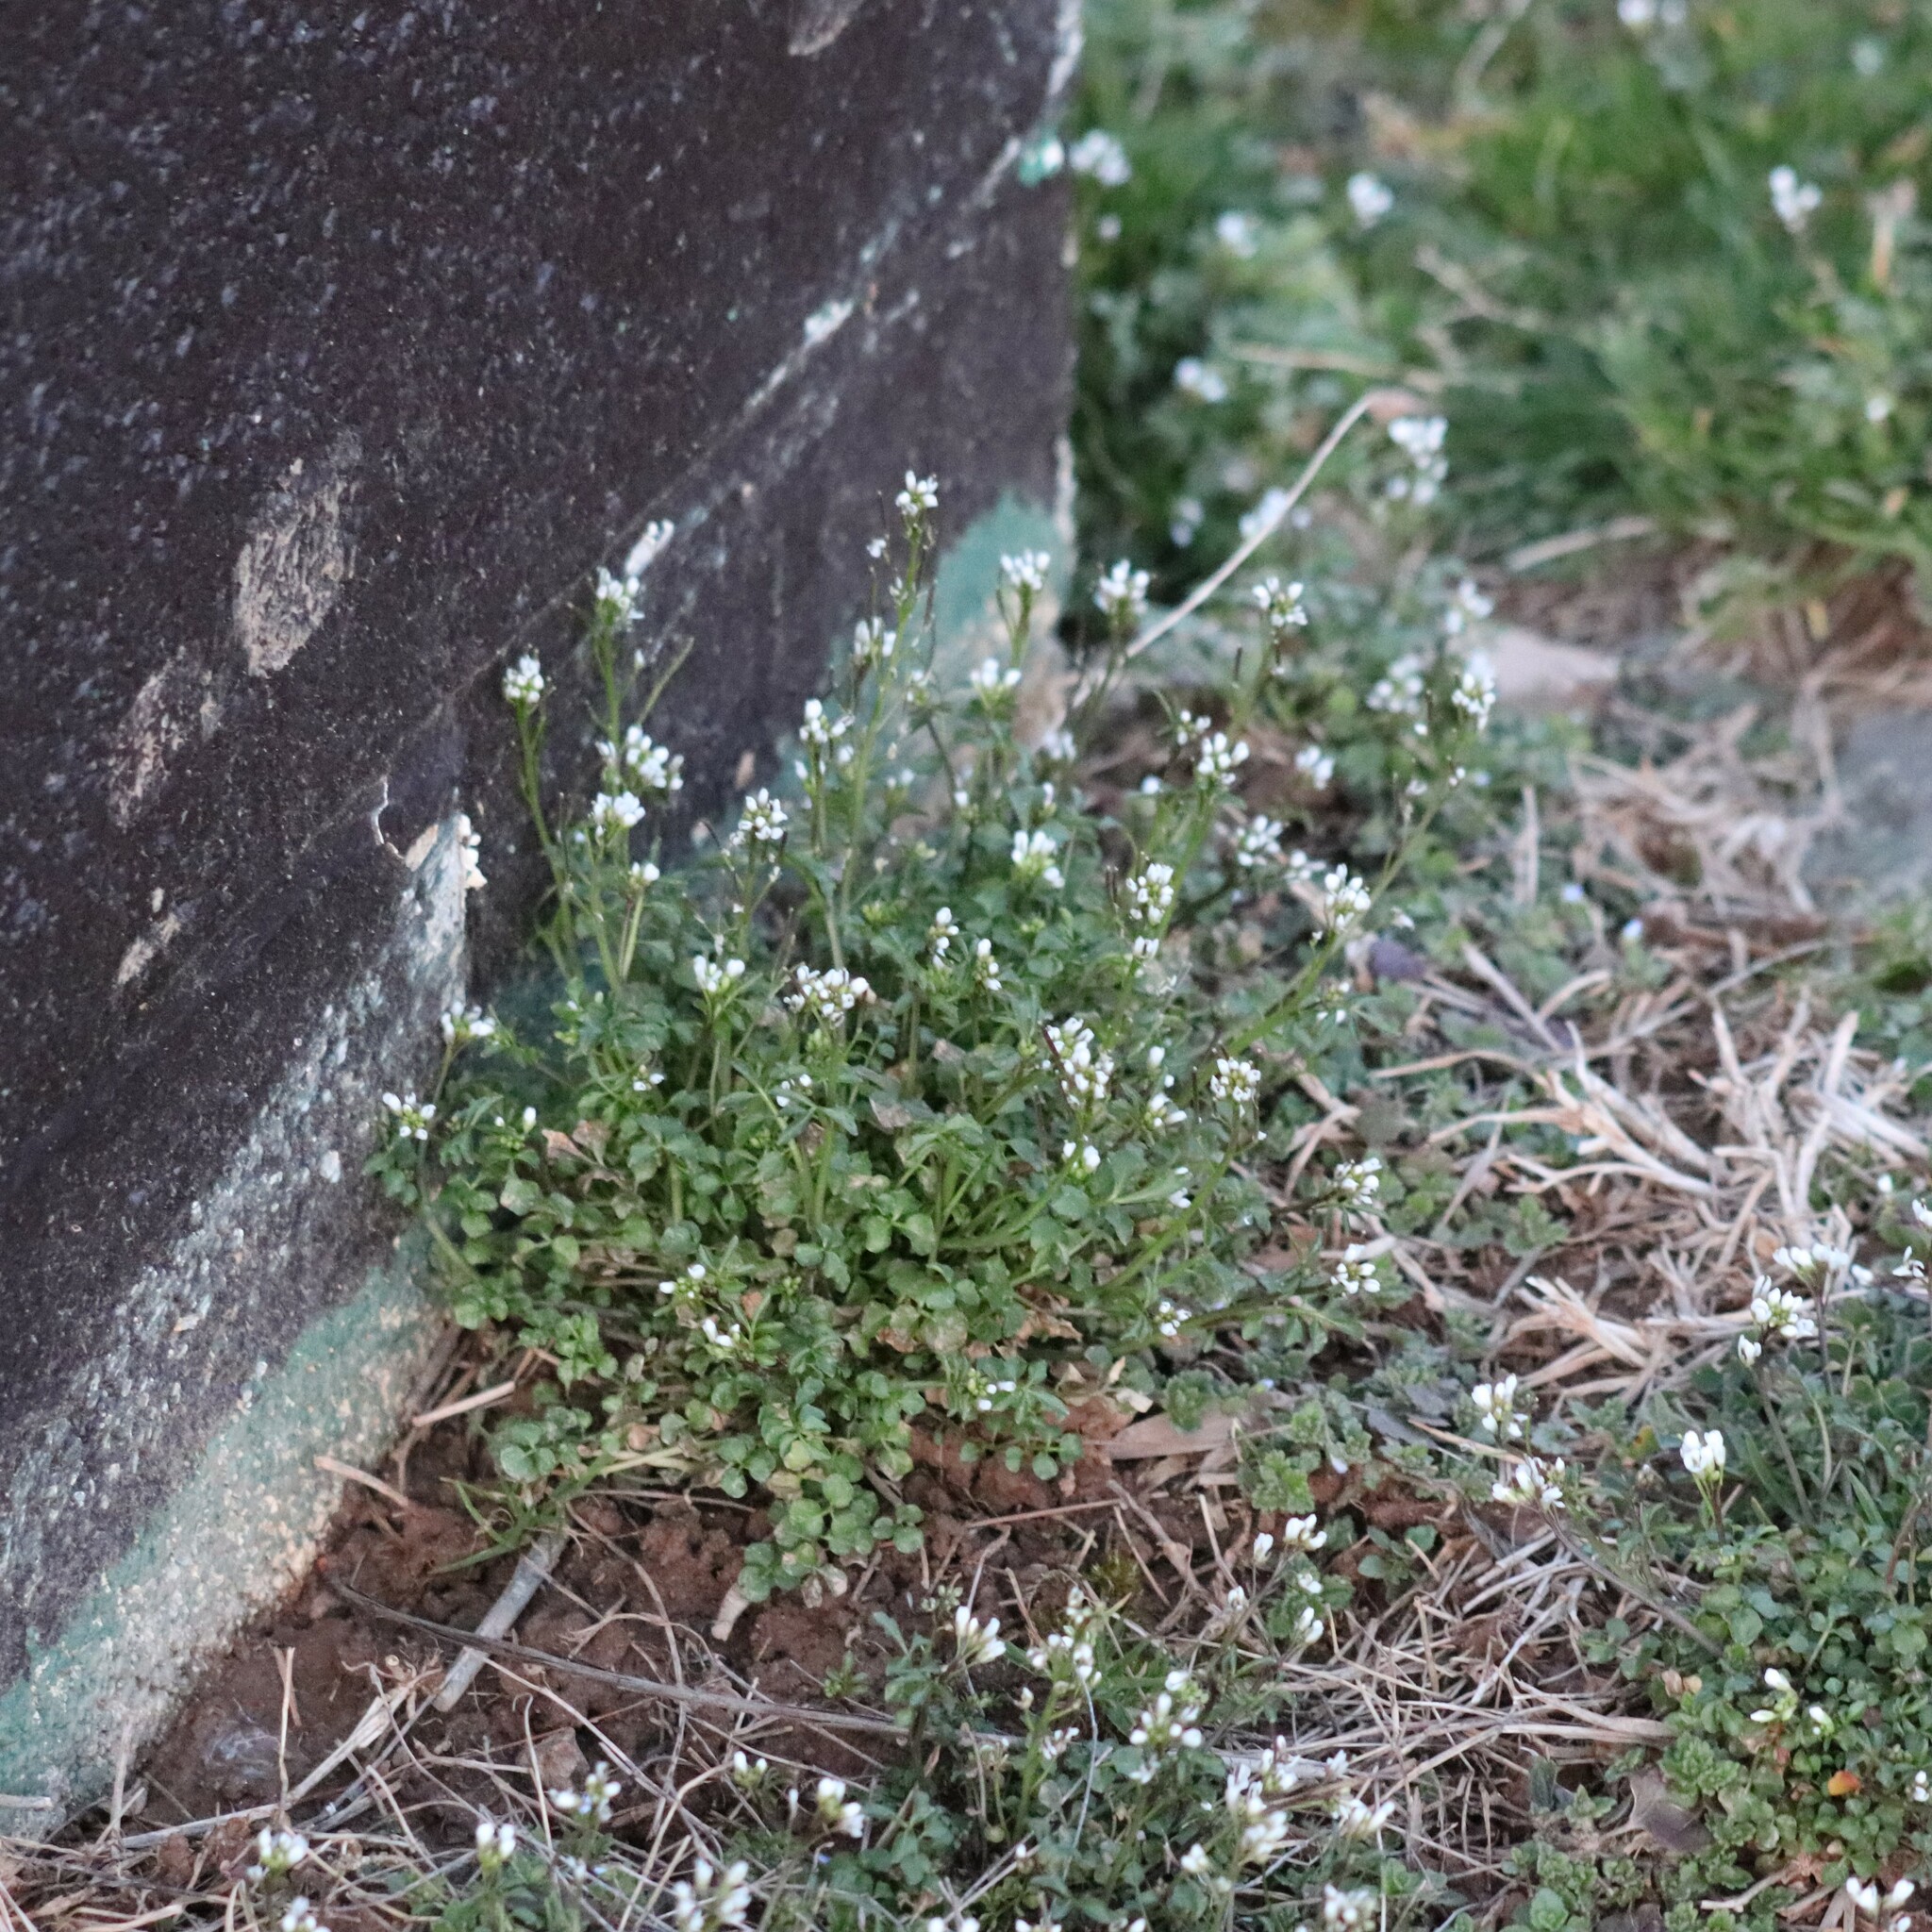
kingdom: Plantae
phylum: Tracheophyta
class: Magnoliopsida
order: Brassicales
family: Brassicaceae
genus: Cardamine
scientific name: Cardamine hirsuta
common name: Hairy bittercress
